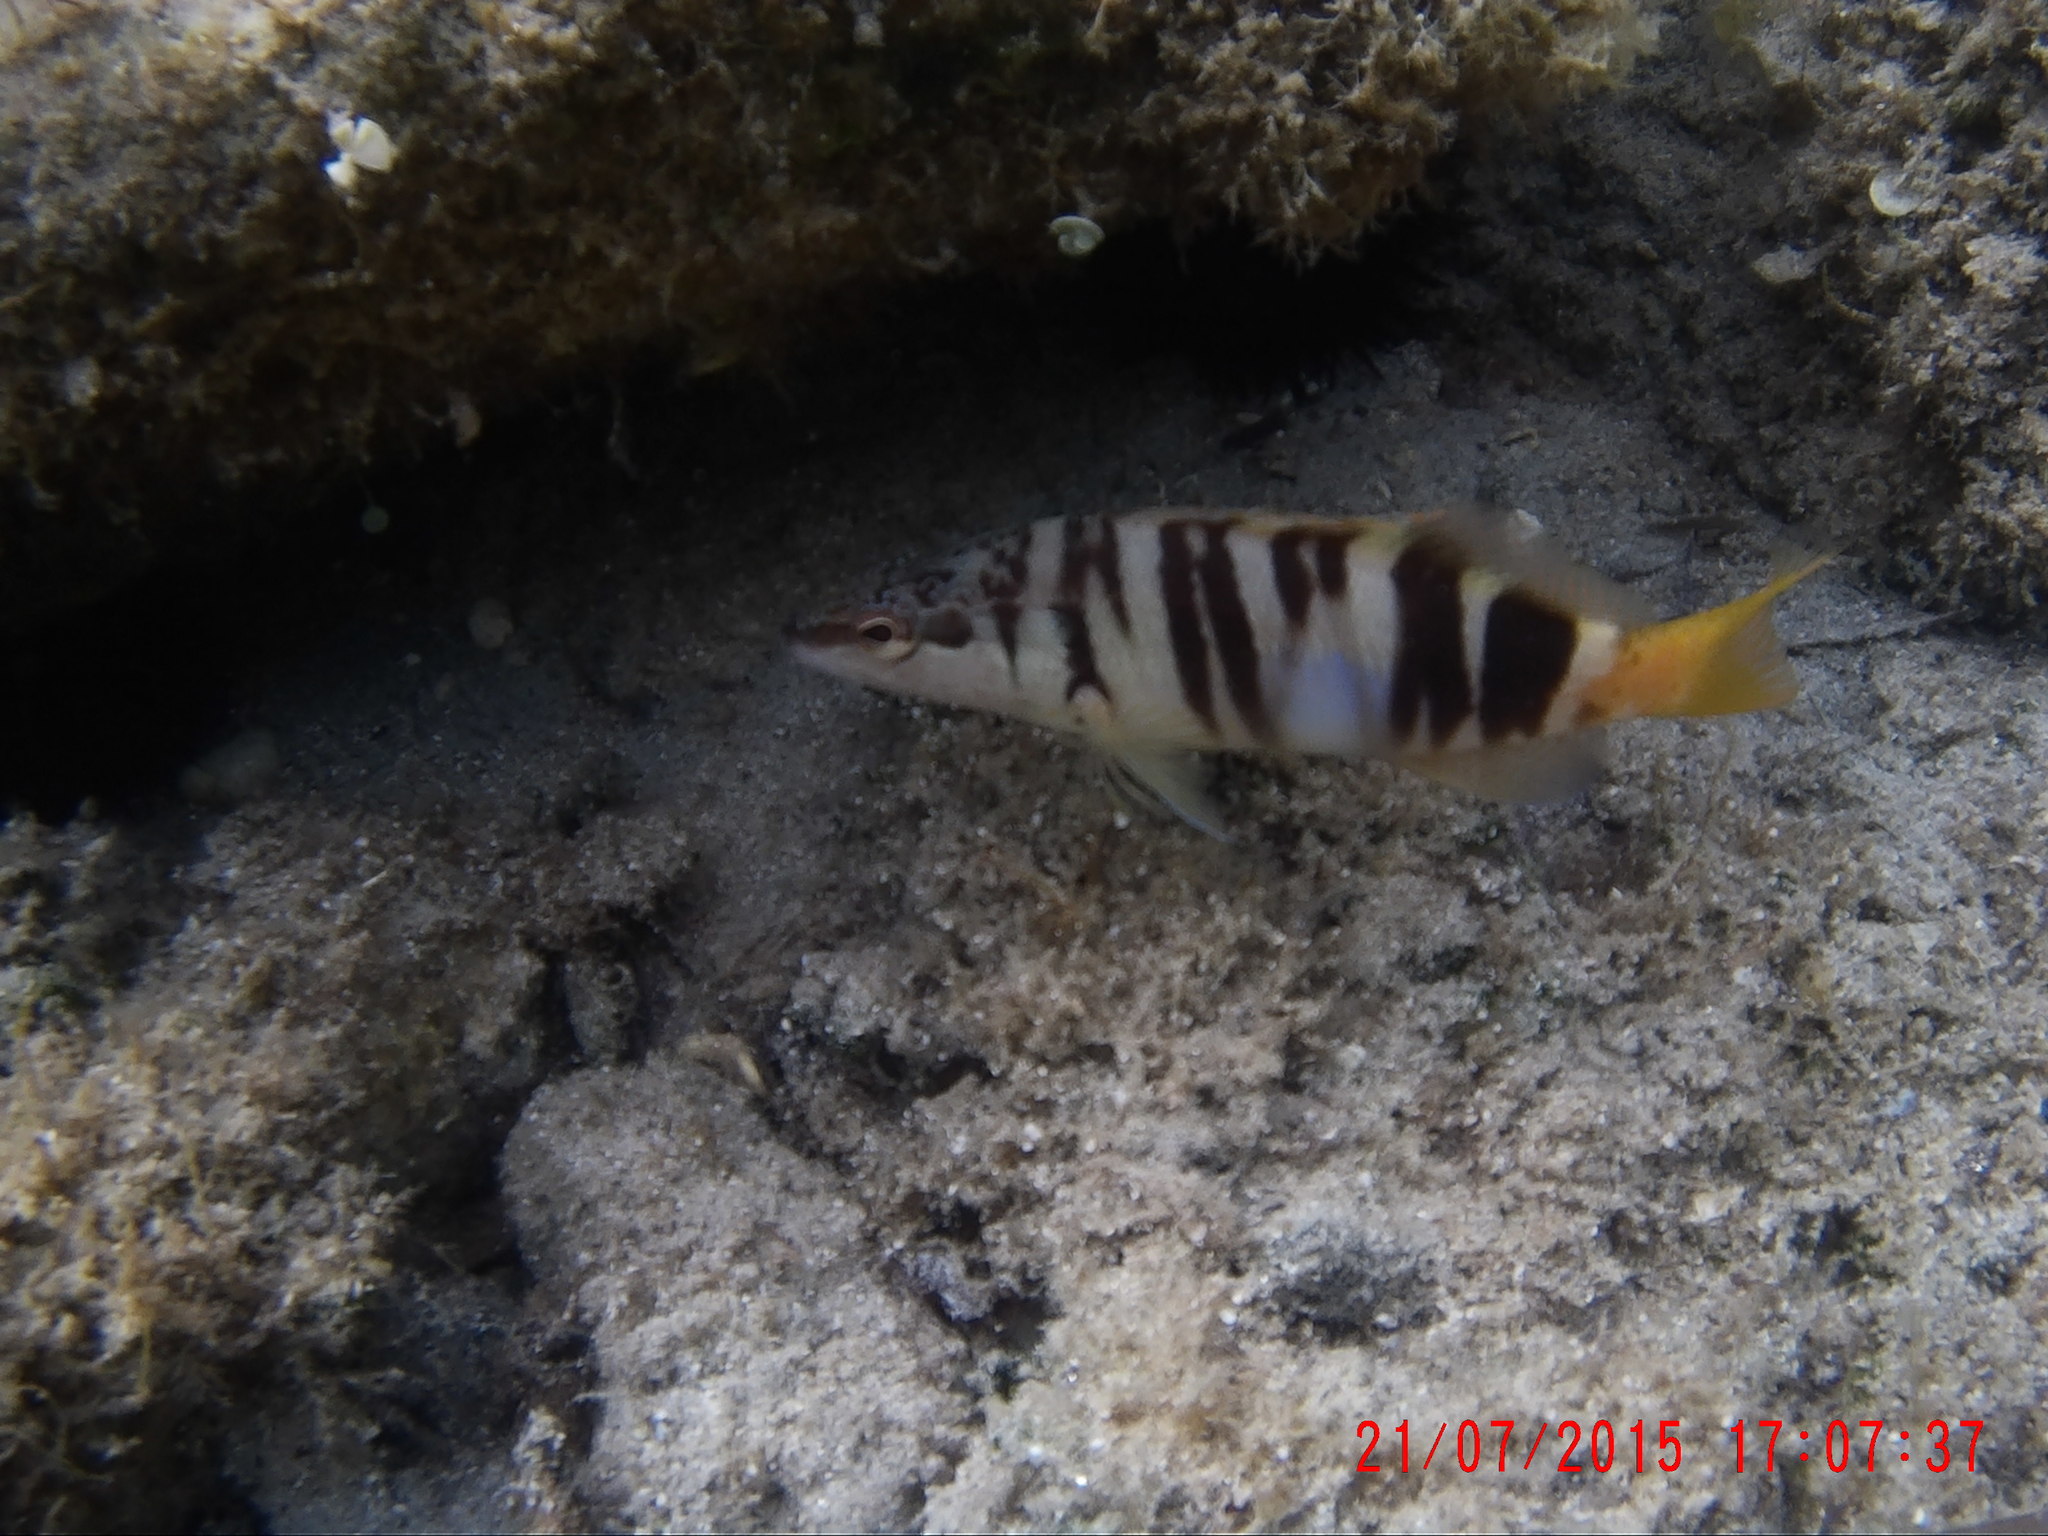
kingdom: Animalia
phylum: Chordata
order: Perciformes
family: Serranidae
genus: Serranus
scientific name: Serranus scriba
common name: Painted comber
